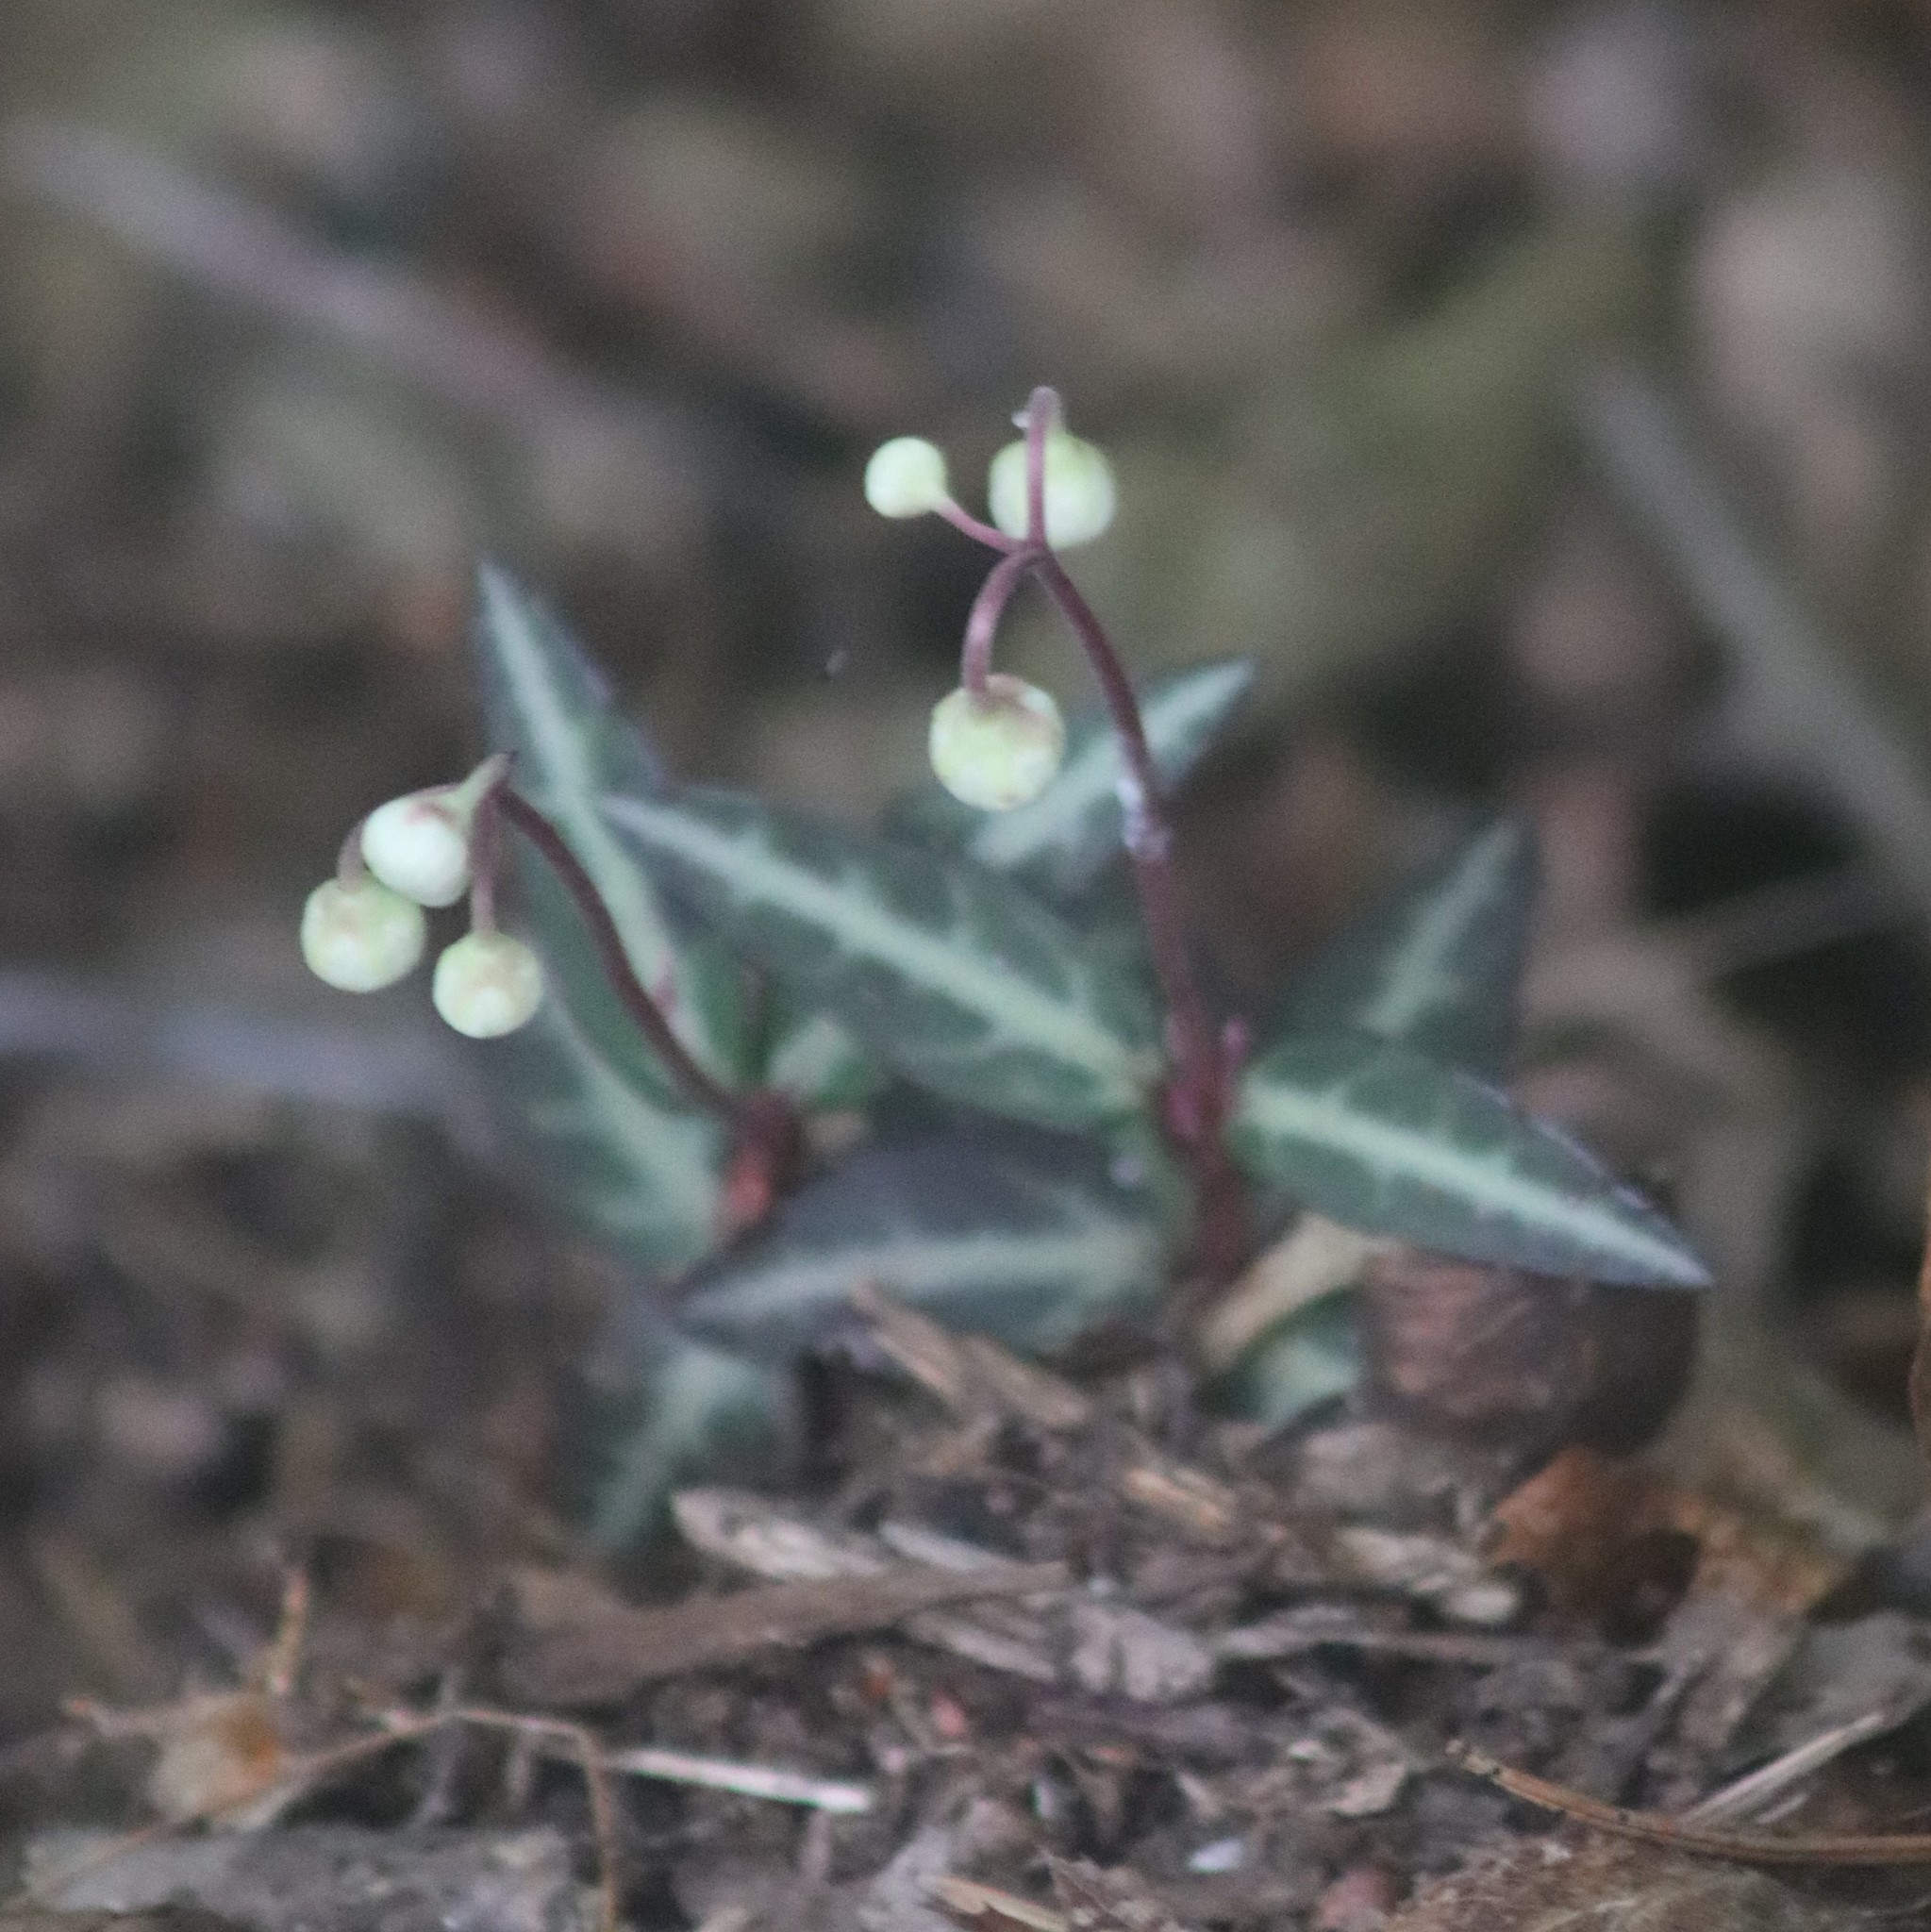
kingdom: Plantae
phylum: Tracheophyta
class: Magnoliopsida
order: Ericales
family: Ericaceae
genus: Chimaphila
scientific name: Chimaphila maculata
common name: Spotted pipsissewa
